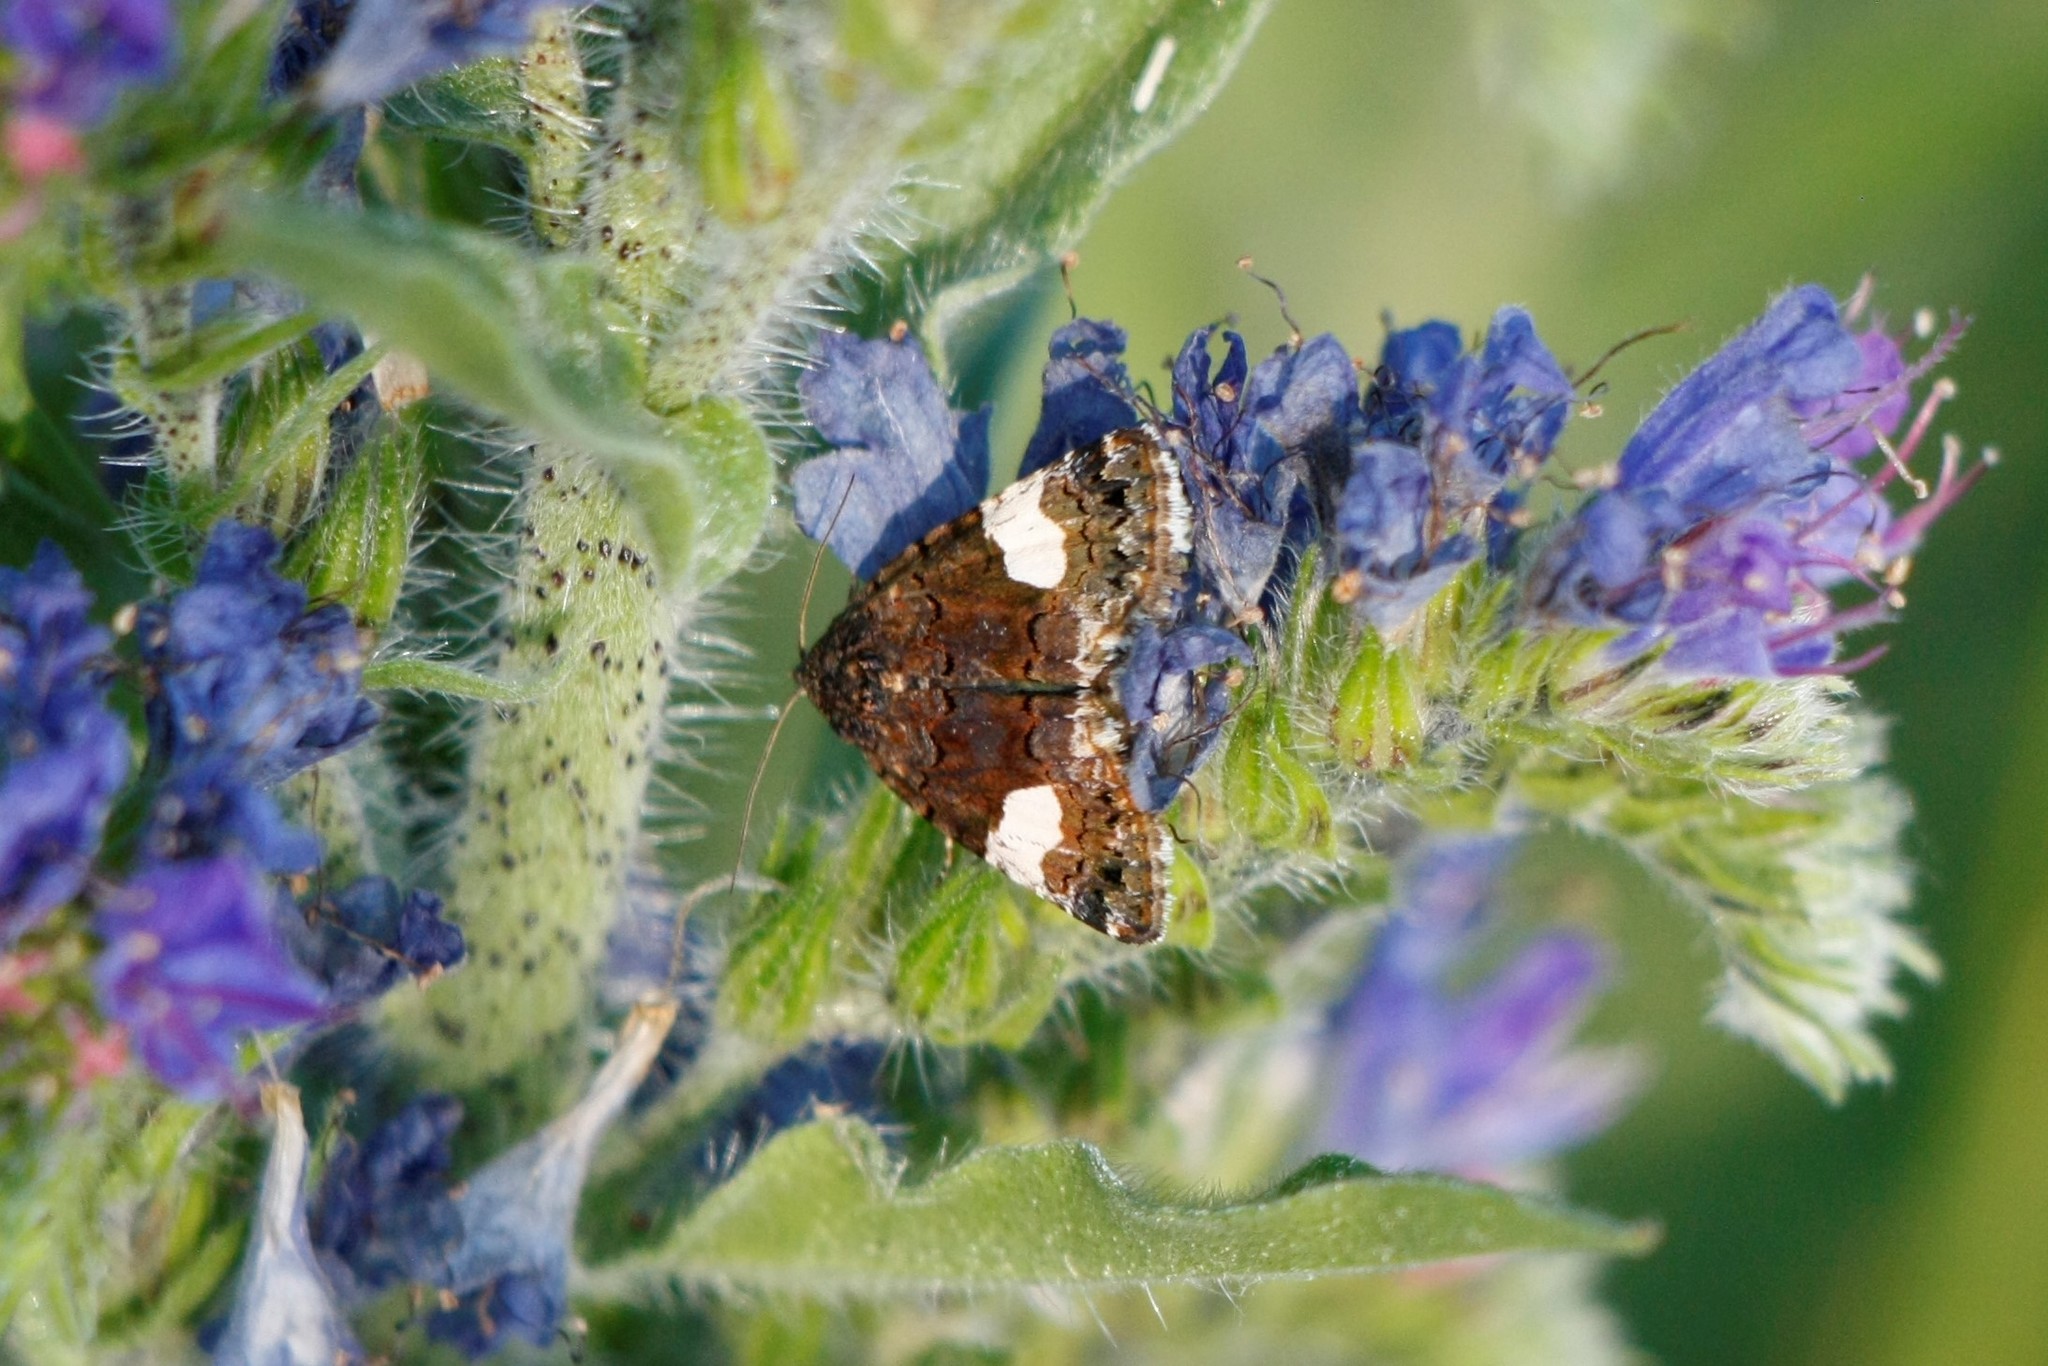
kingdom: Animalia
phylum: Arthropoda
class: Insecta
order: Lepidoptera
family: Erebidae
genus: Tyta
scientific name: Tyta luctuosa
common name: Four-spotted
